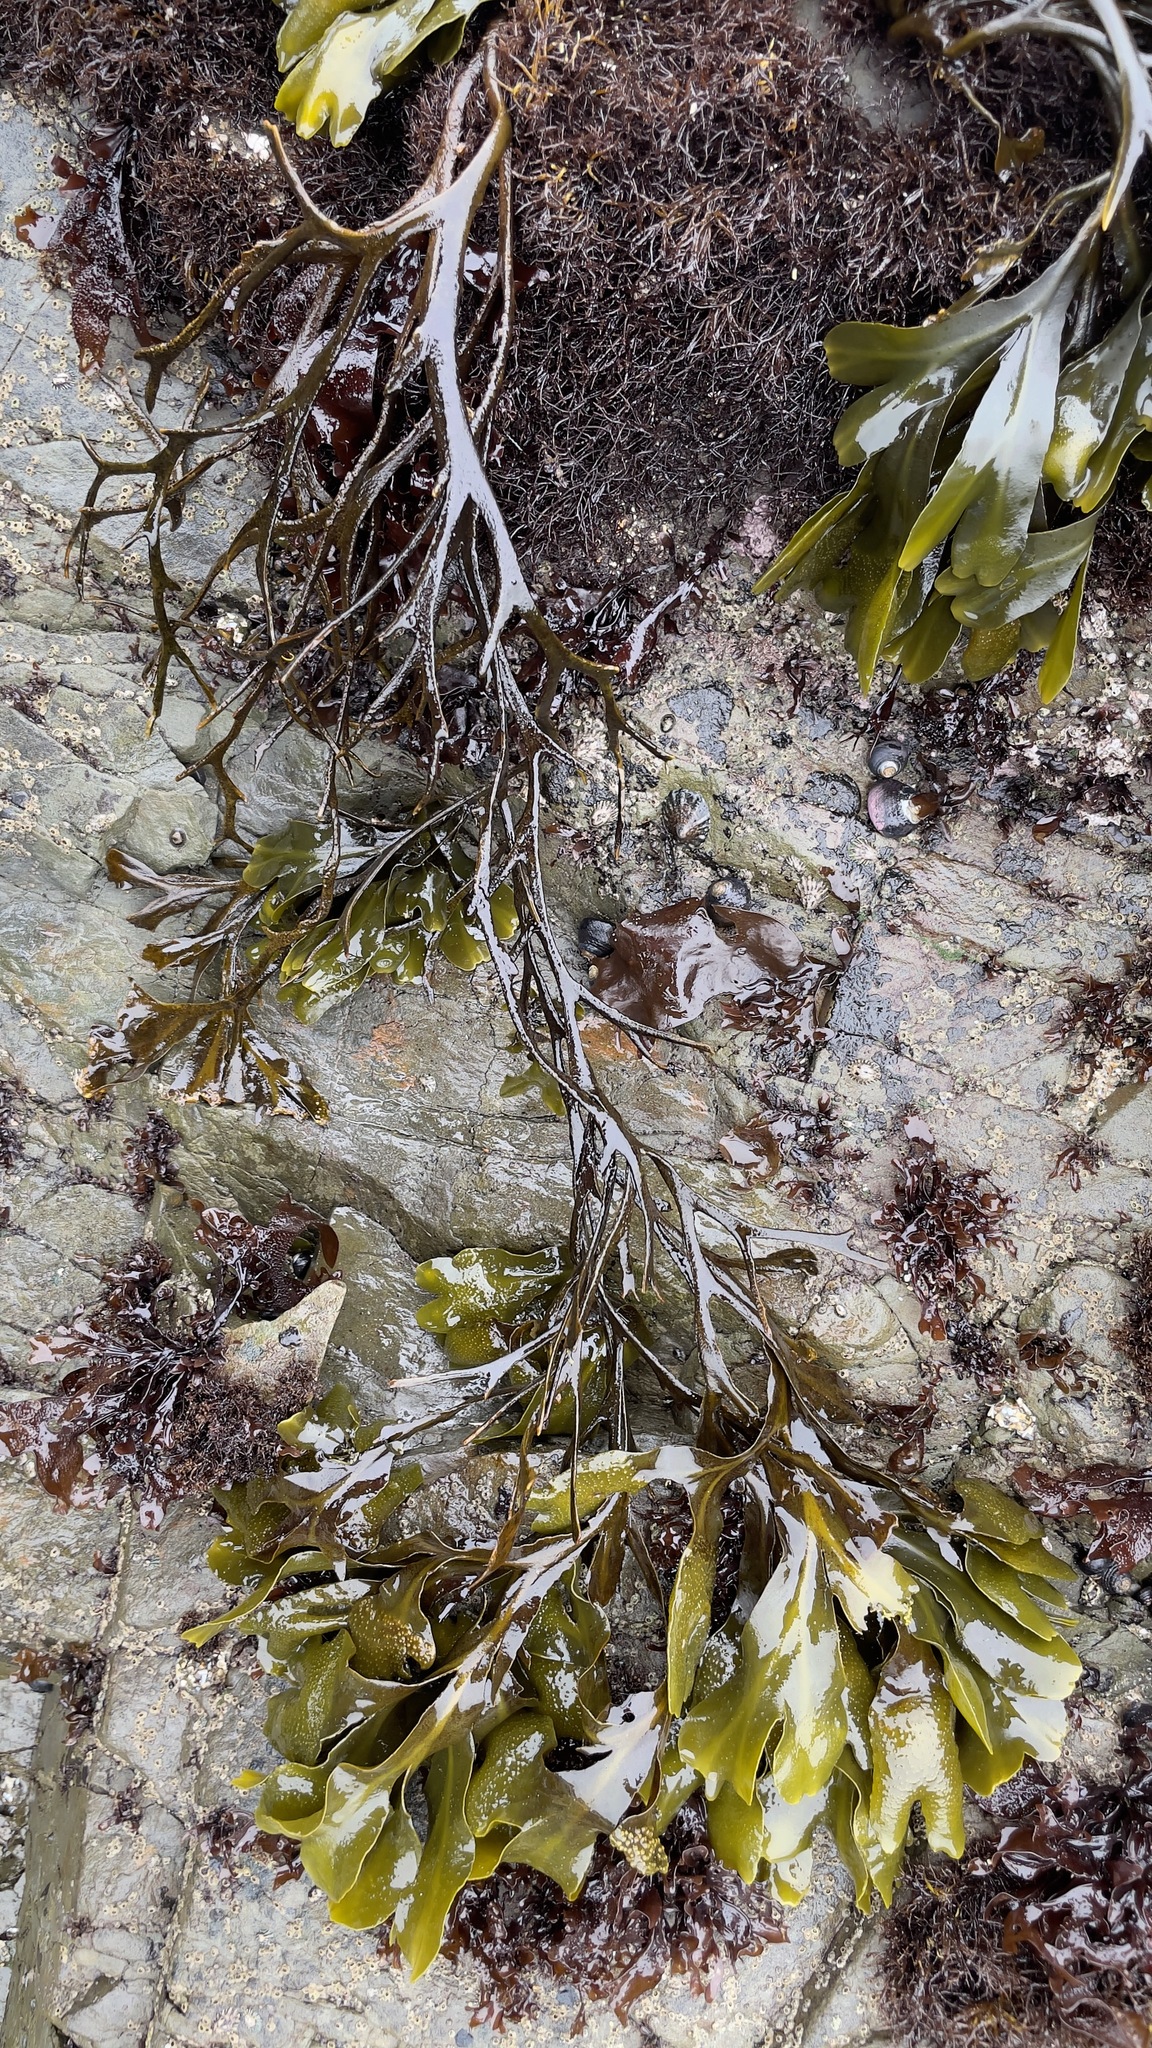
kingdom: Chromista
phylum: Ochrophyta
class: Phaeophyceae
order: Fucales
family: Fucaceae
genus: Fucus
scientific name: Fucus distichus
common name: Rockweed
